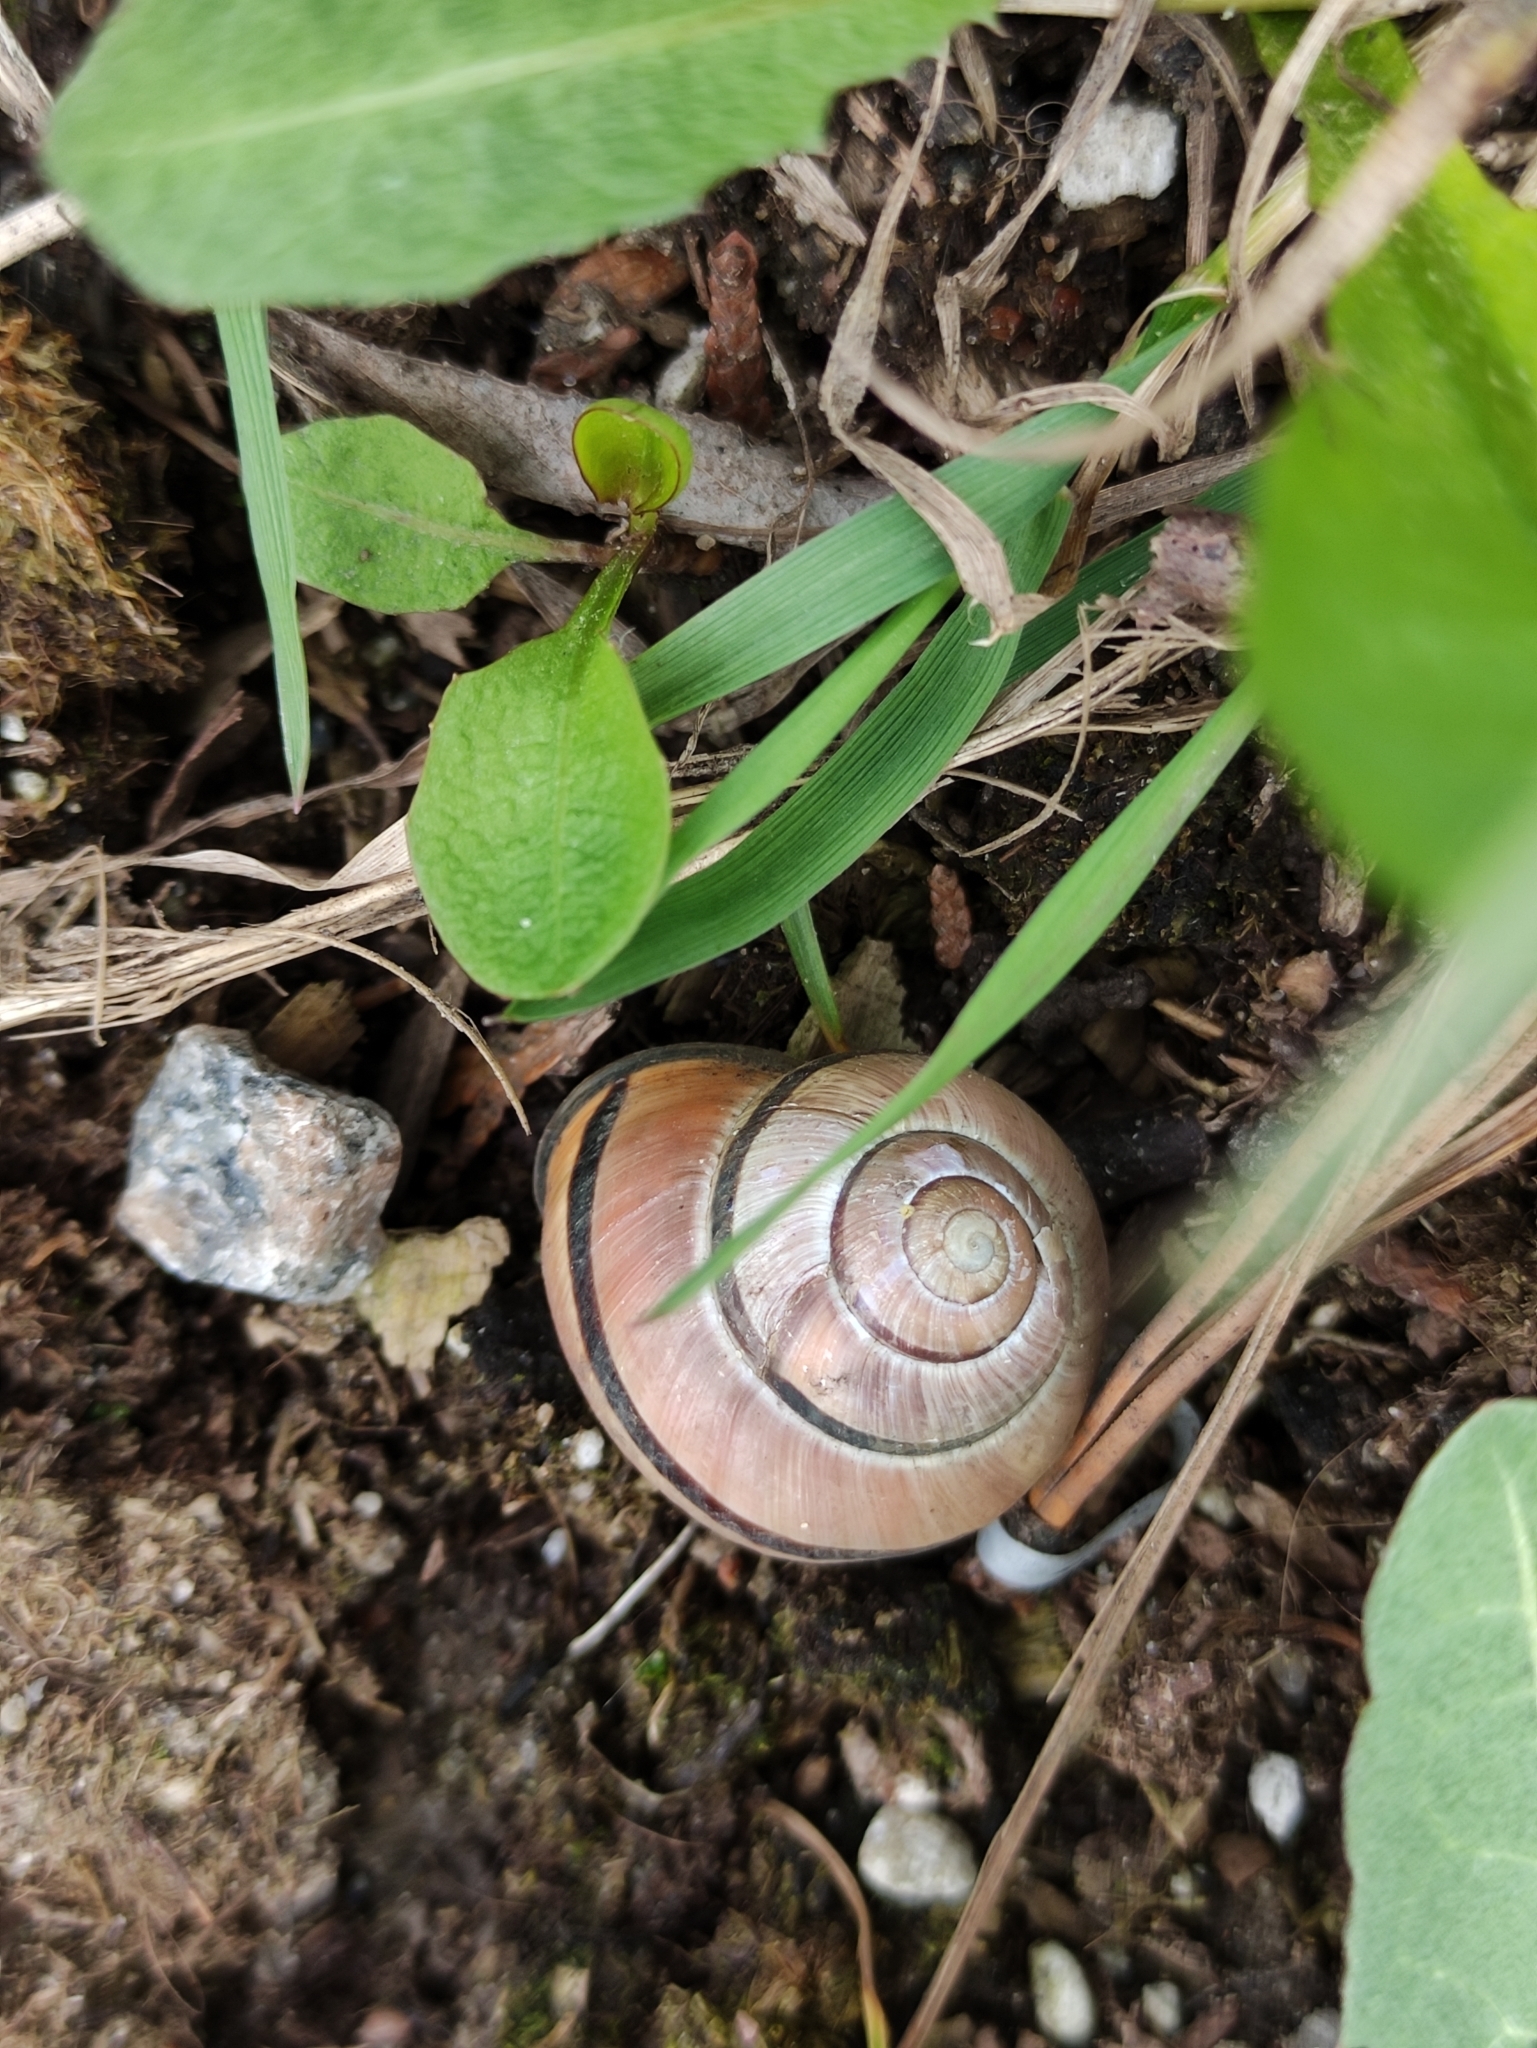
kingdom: Animalia
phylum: Mollusca
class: Gastropoda
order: Stylommatophora
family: Helicidae
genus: Cepaea
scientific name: Cepaea nemoralis
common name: Grovesnail
